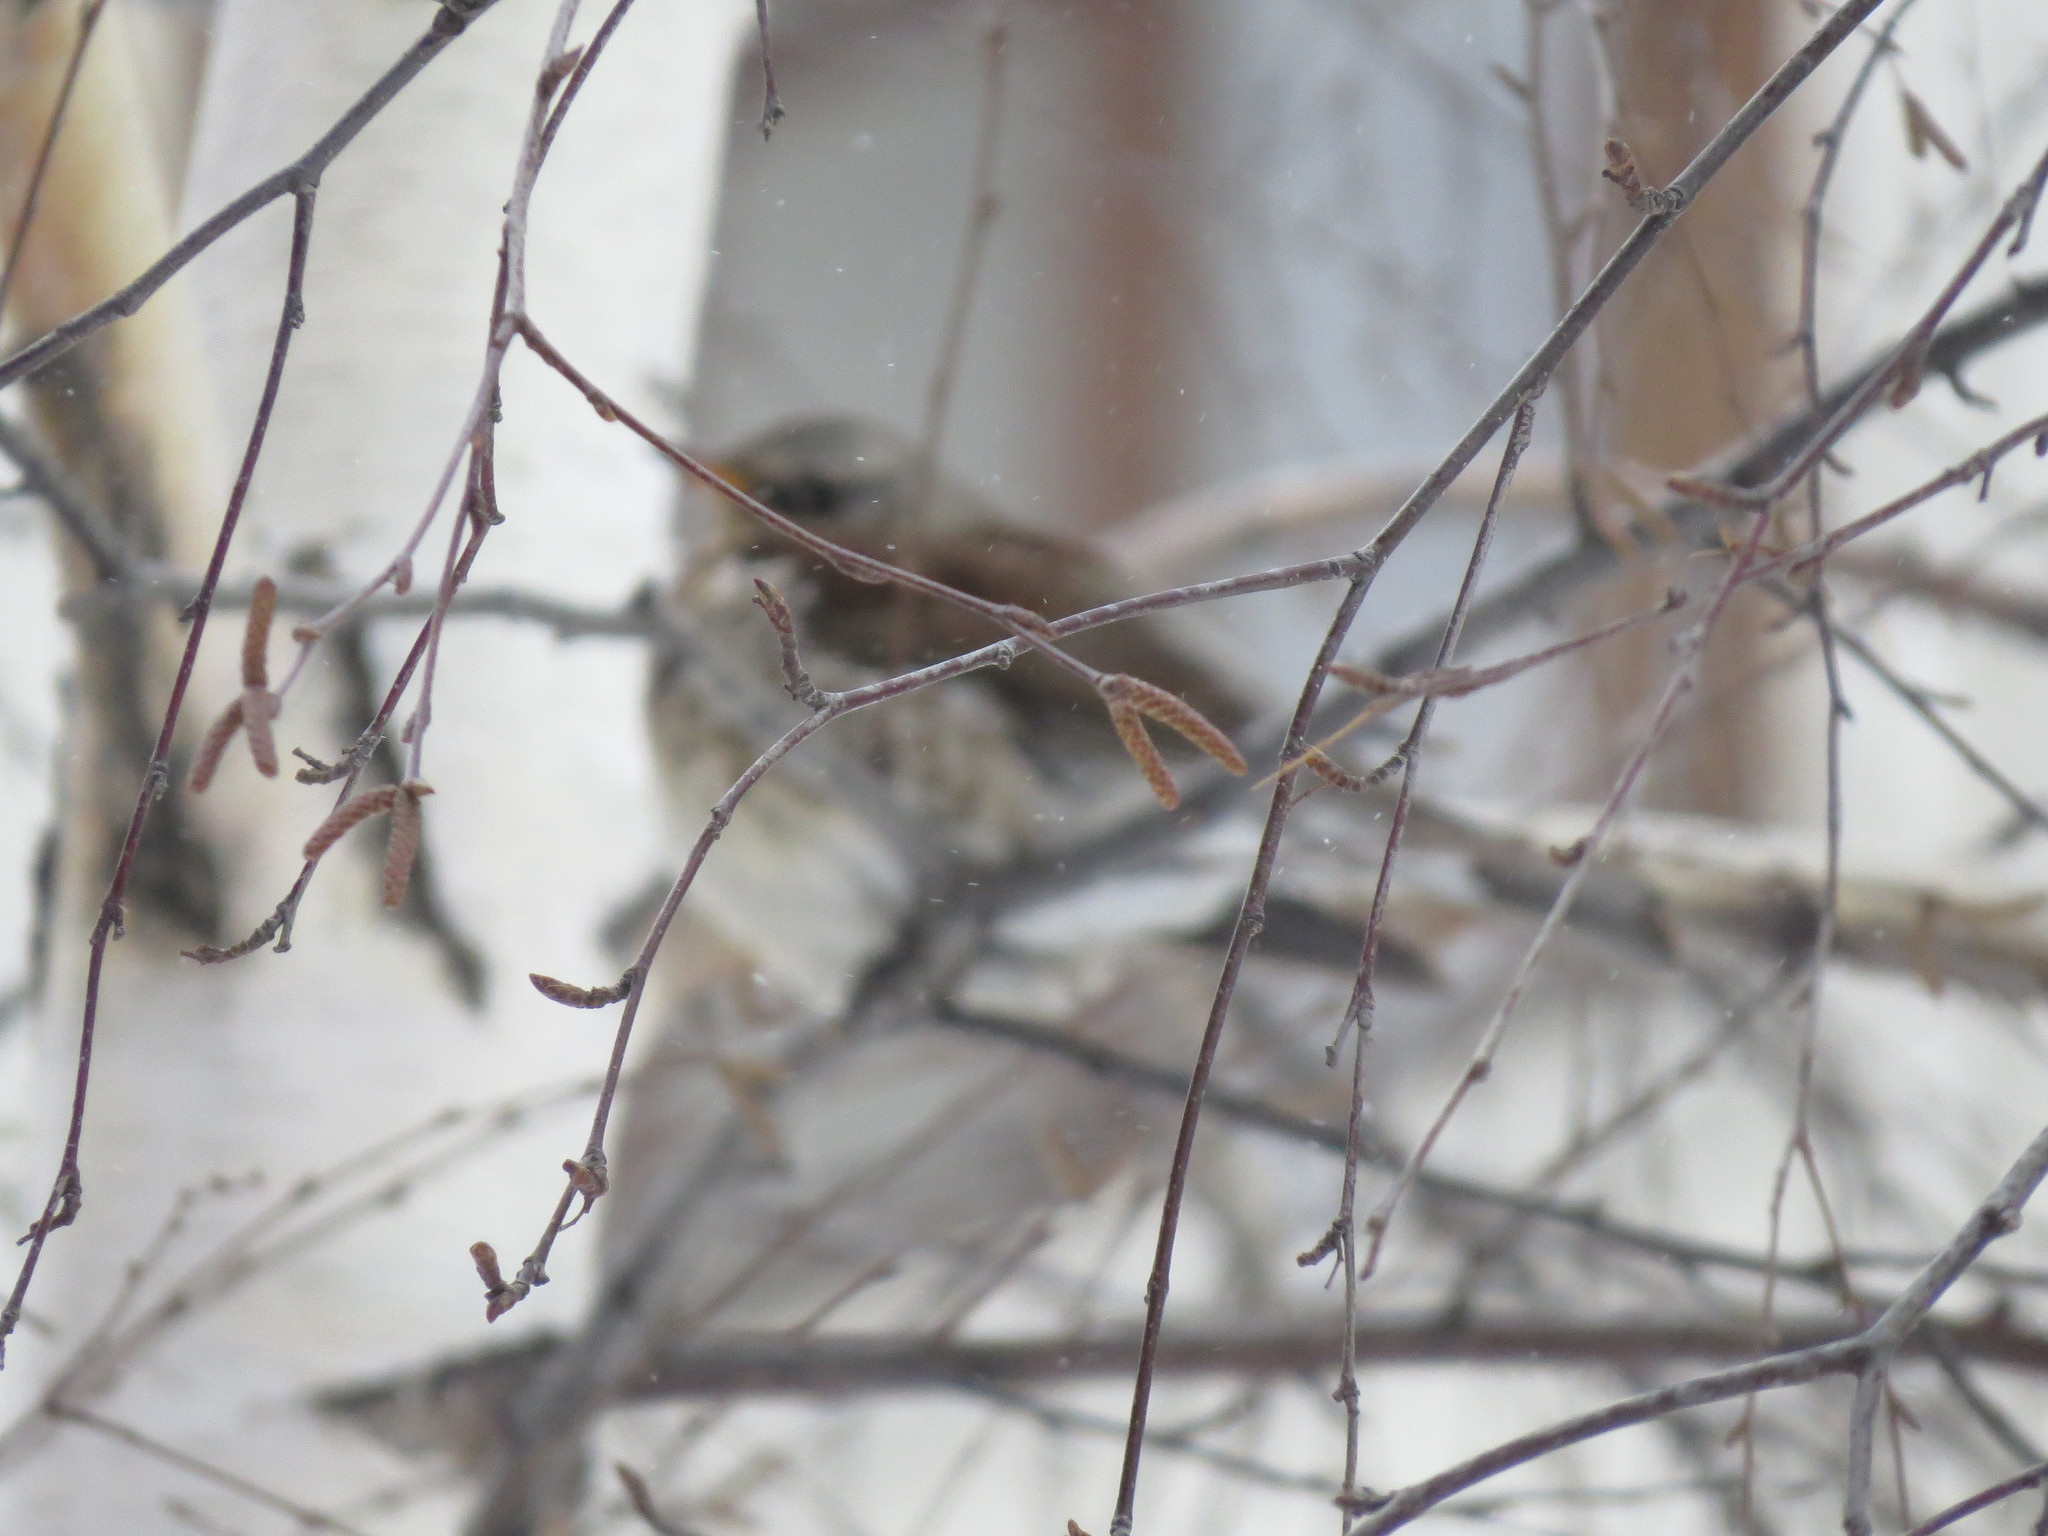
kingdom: Animalia
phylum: Chordata
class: Aves
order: Passeriformes
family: Turdidae
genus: Turdus
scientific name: Turdus pilaris
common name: Fieldfare
